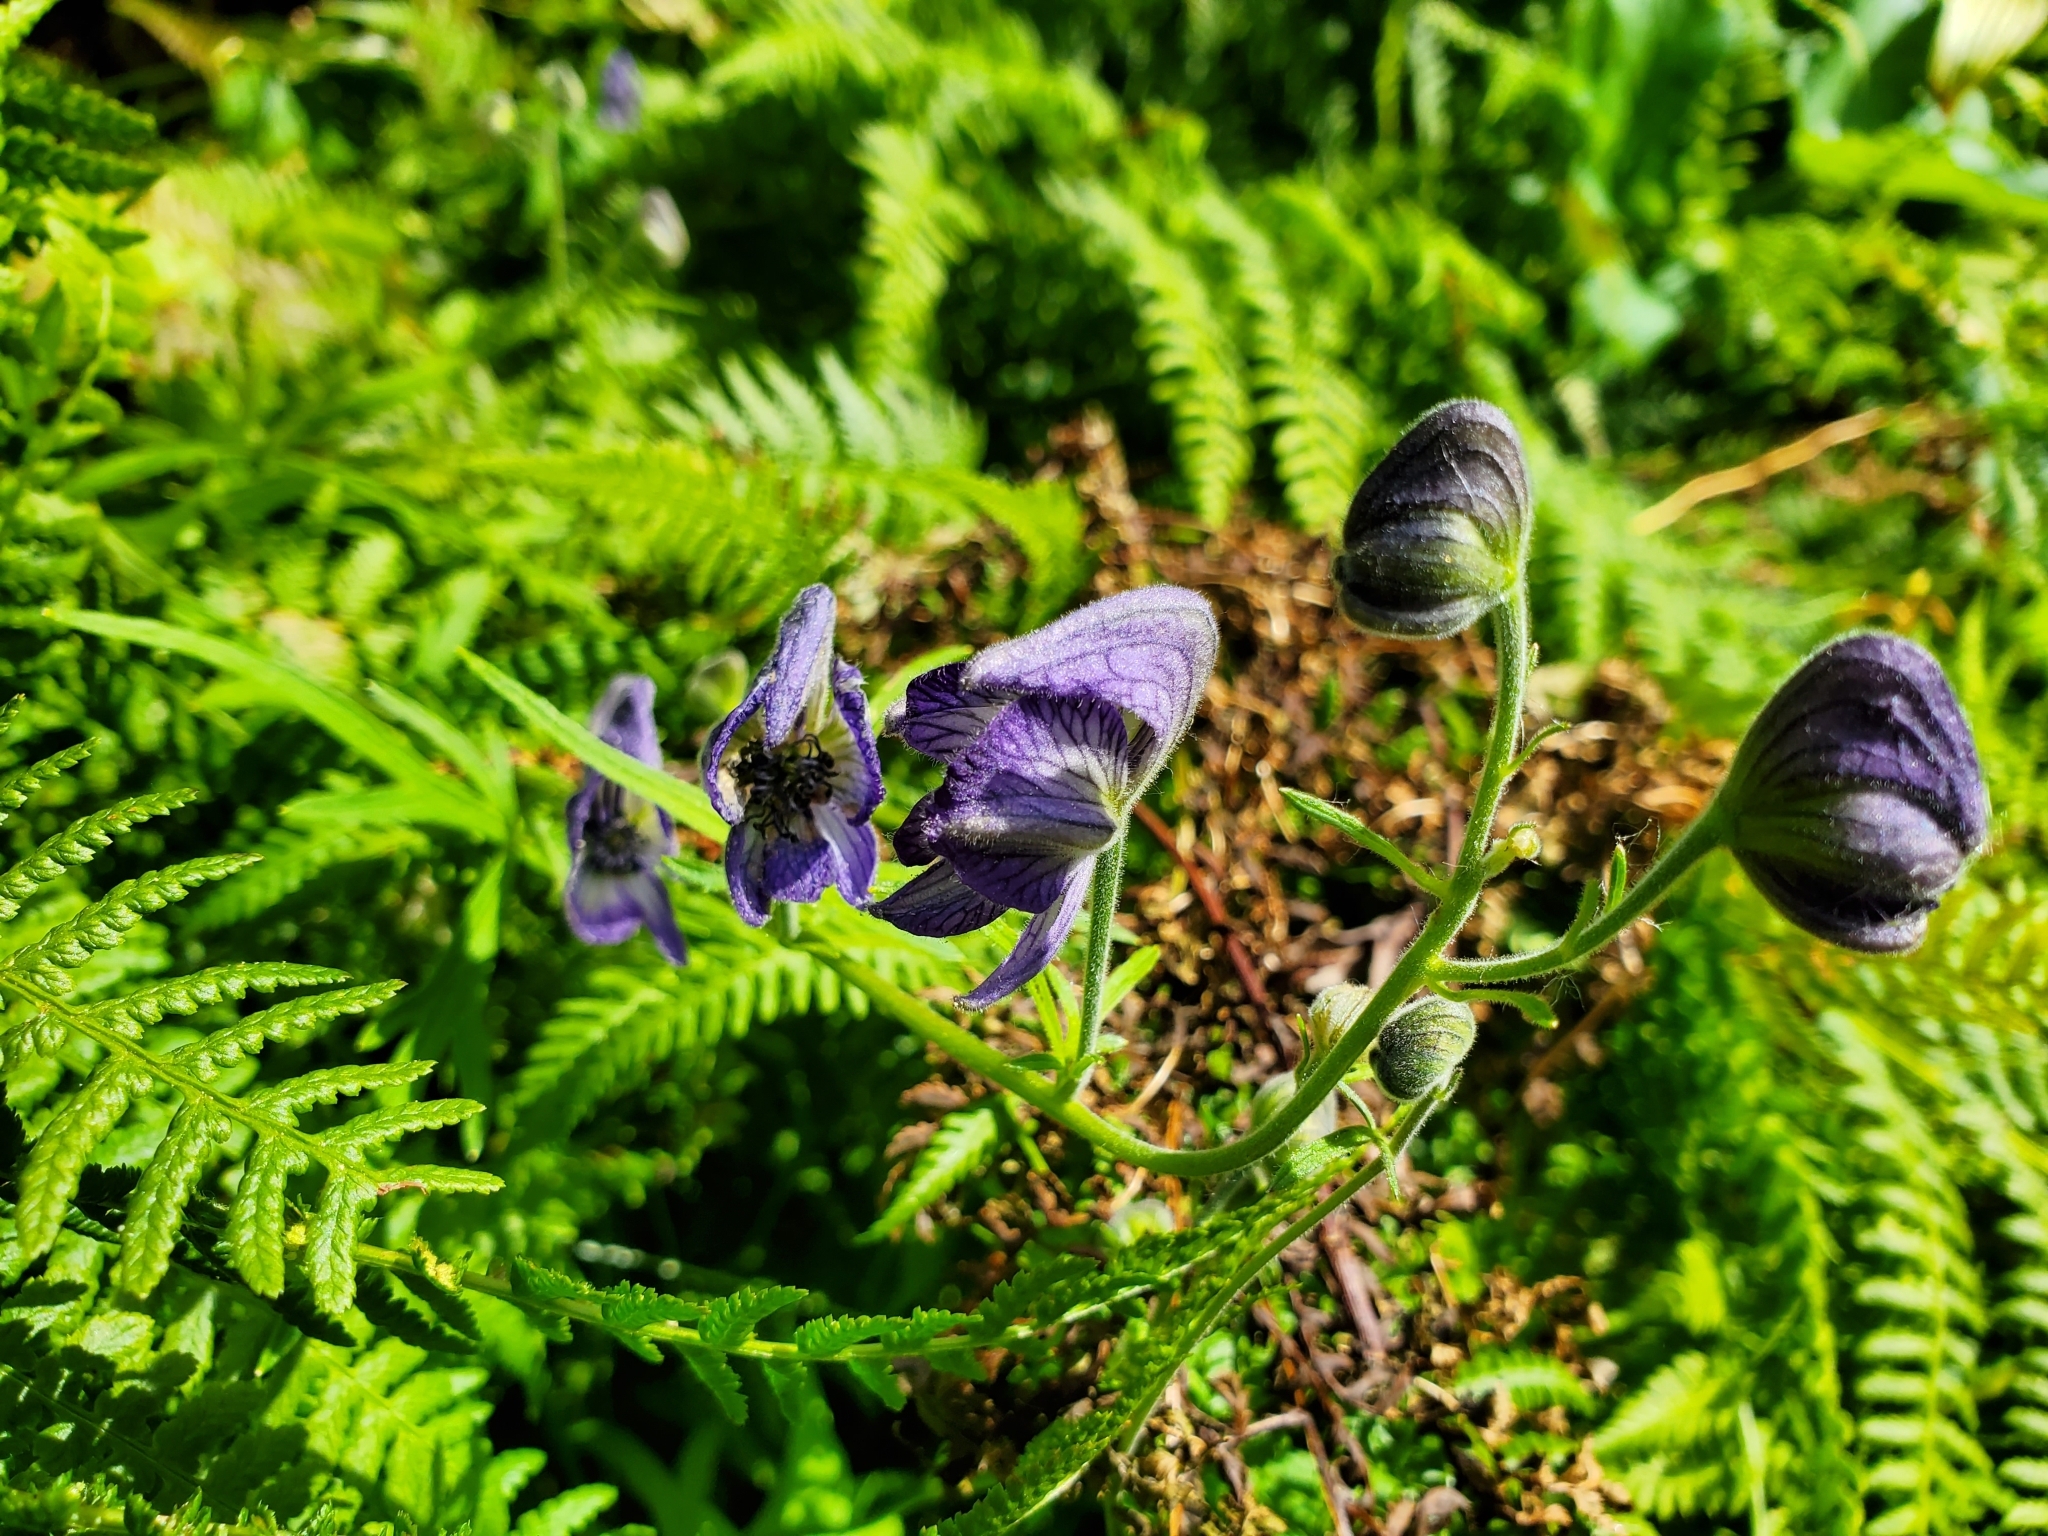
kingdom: Plantae
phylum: Tracheophyta
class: Magnoliopsida
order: Ranunculales
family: Ranunculaceae
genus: Aconitum
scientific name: Aconitum delphiniifolium
